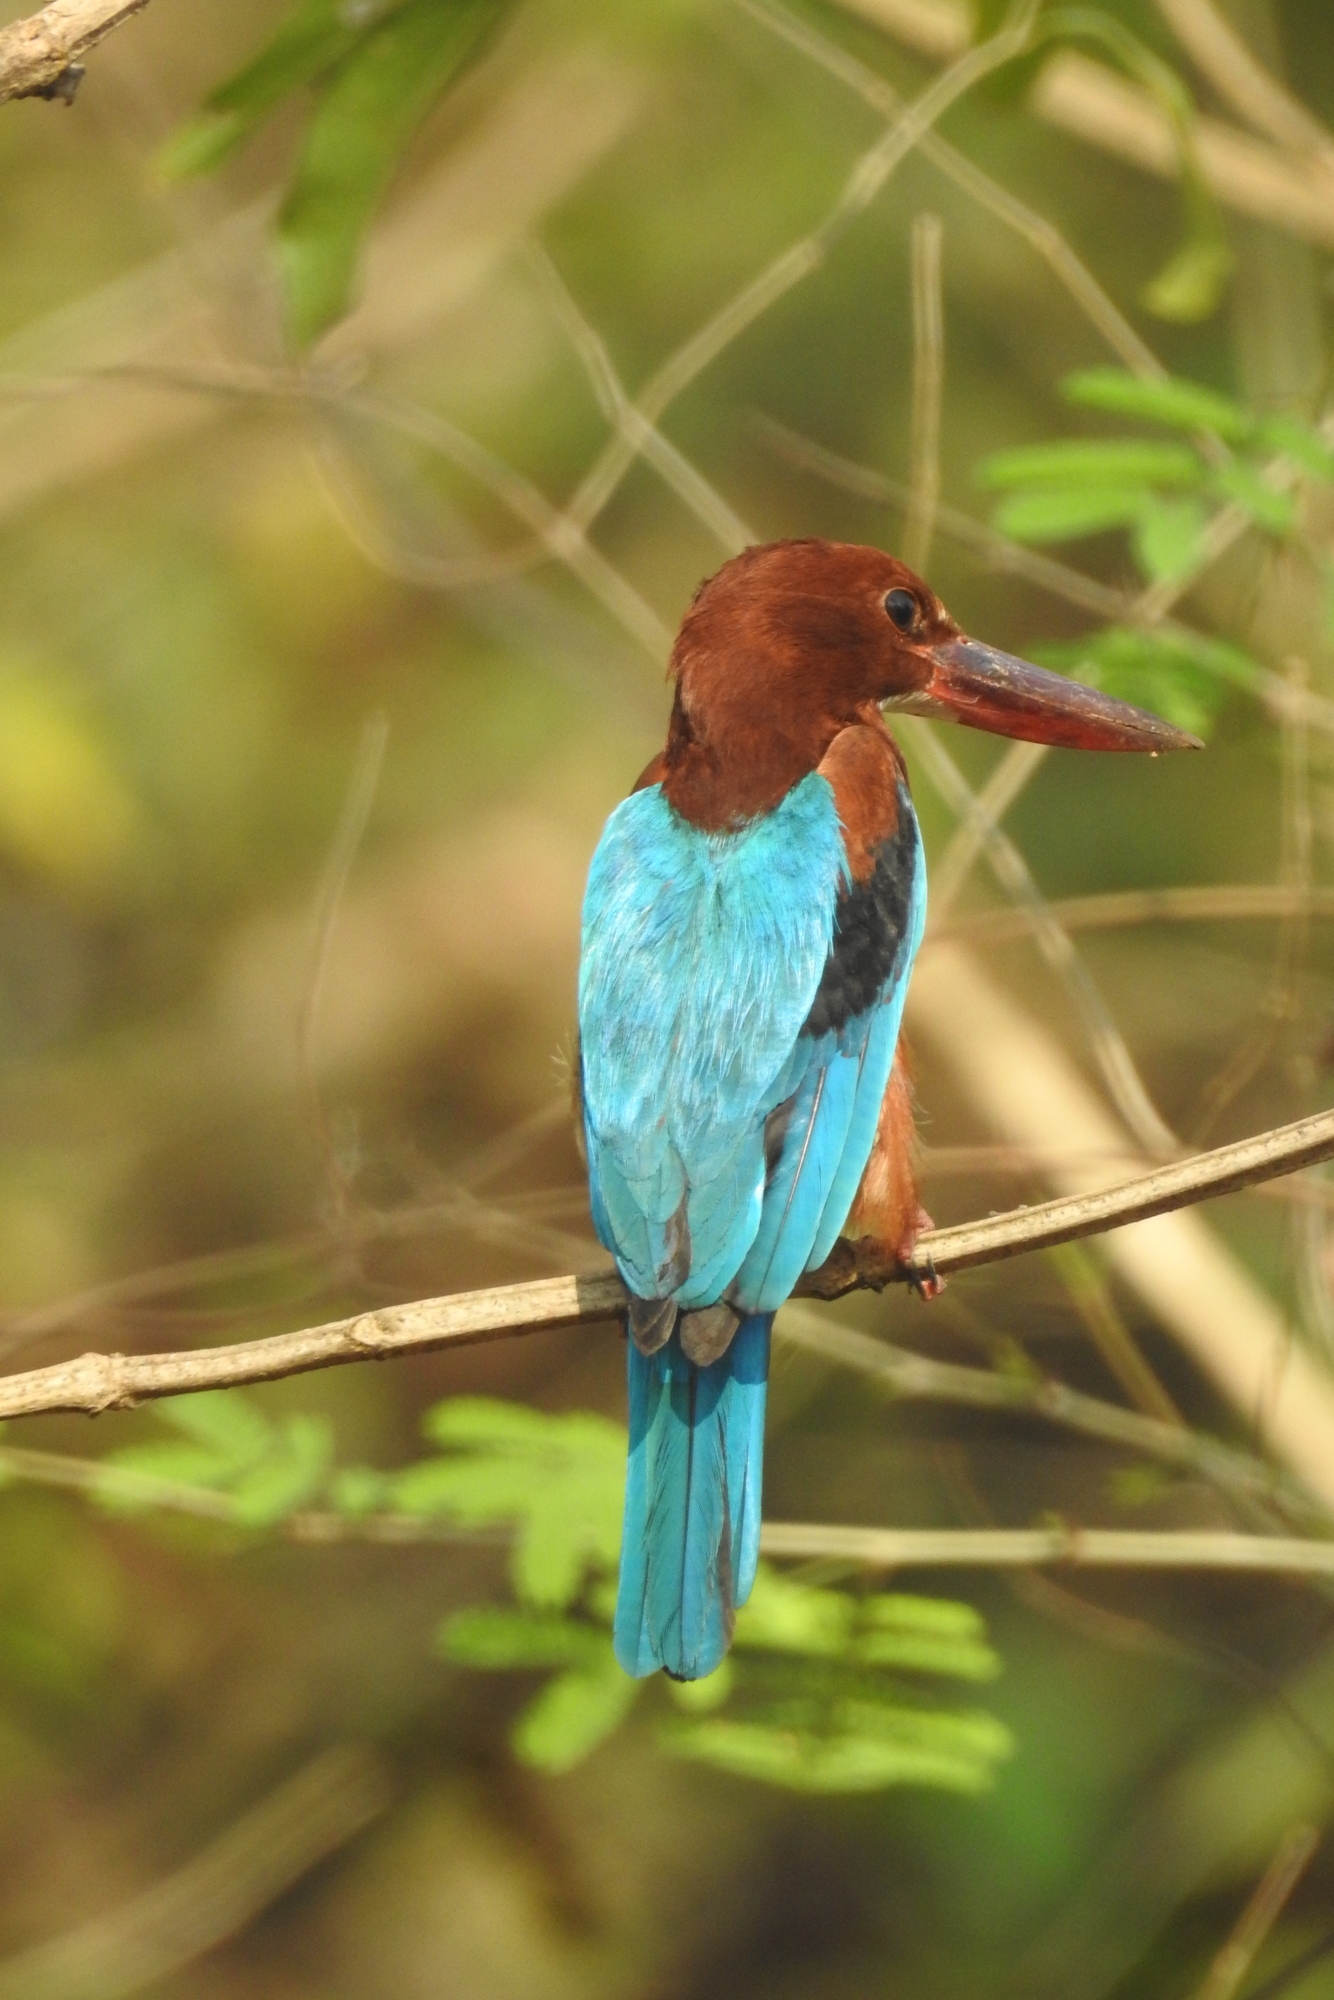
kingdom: Animalia
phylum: Chordata
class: Aves
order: Coraciiformes
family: Alcedinidae
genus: Halcyon
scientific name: Halcyon smyrnensis
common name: White-throated kingfisher
